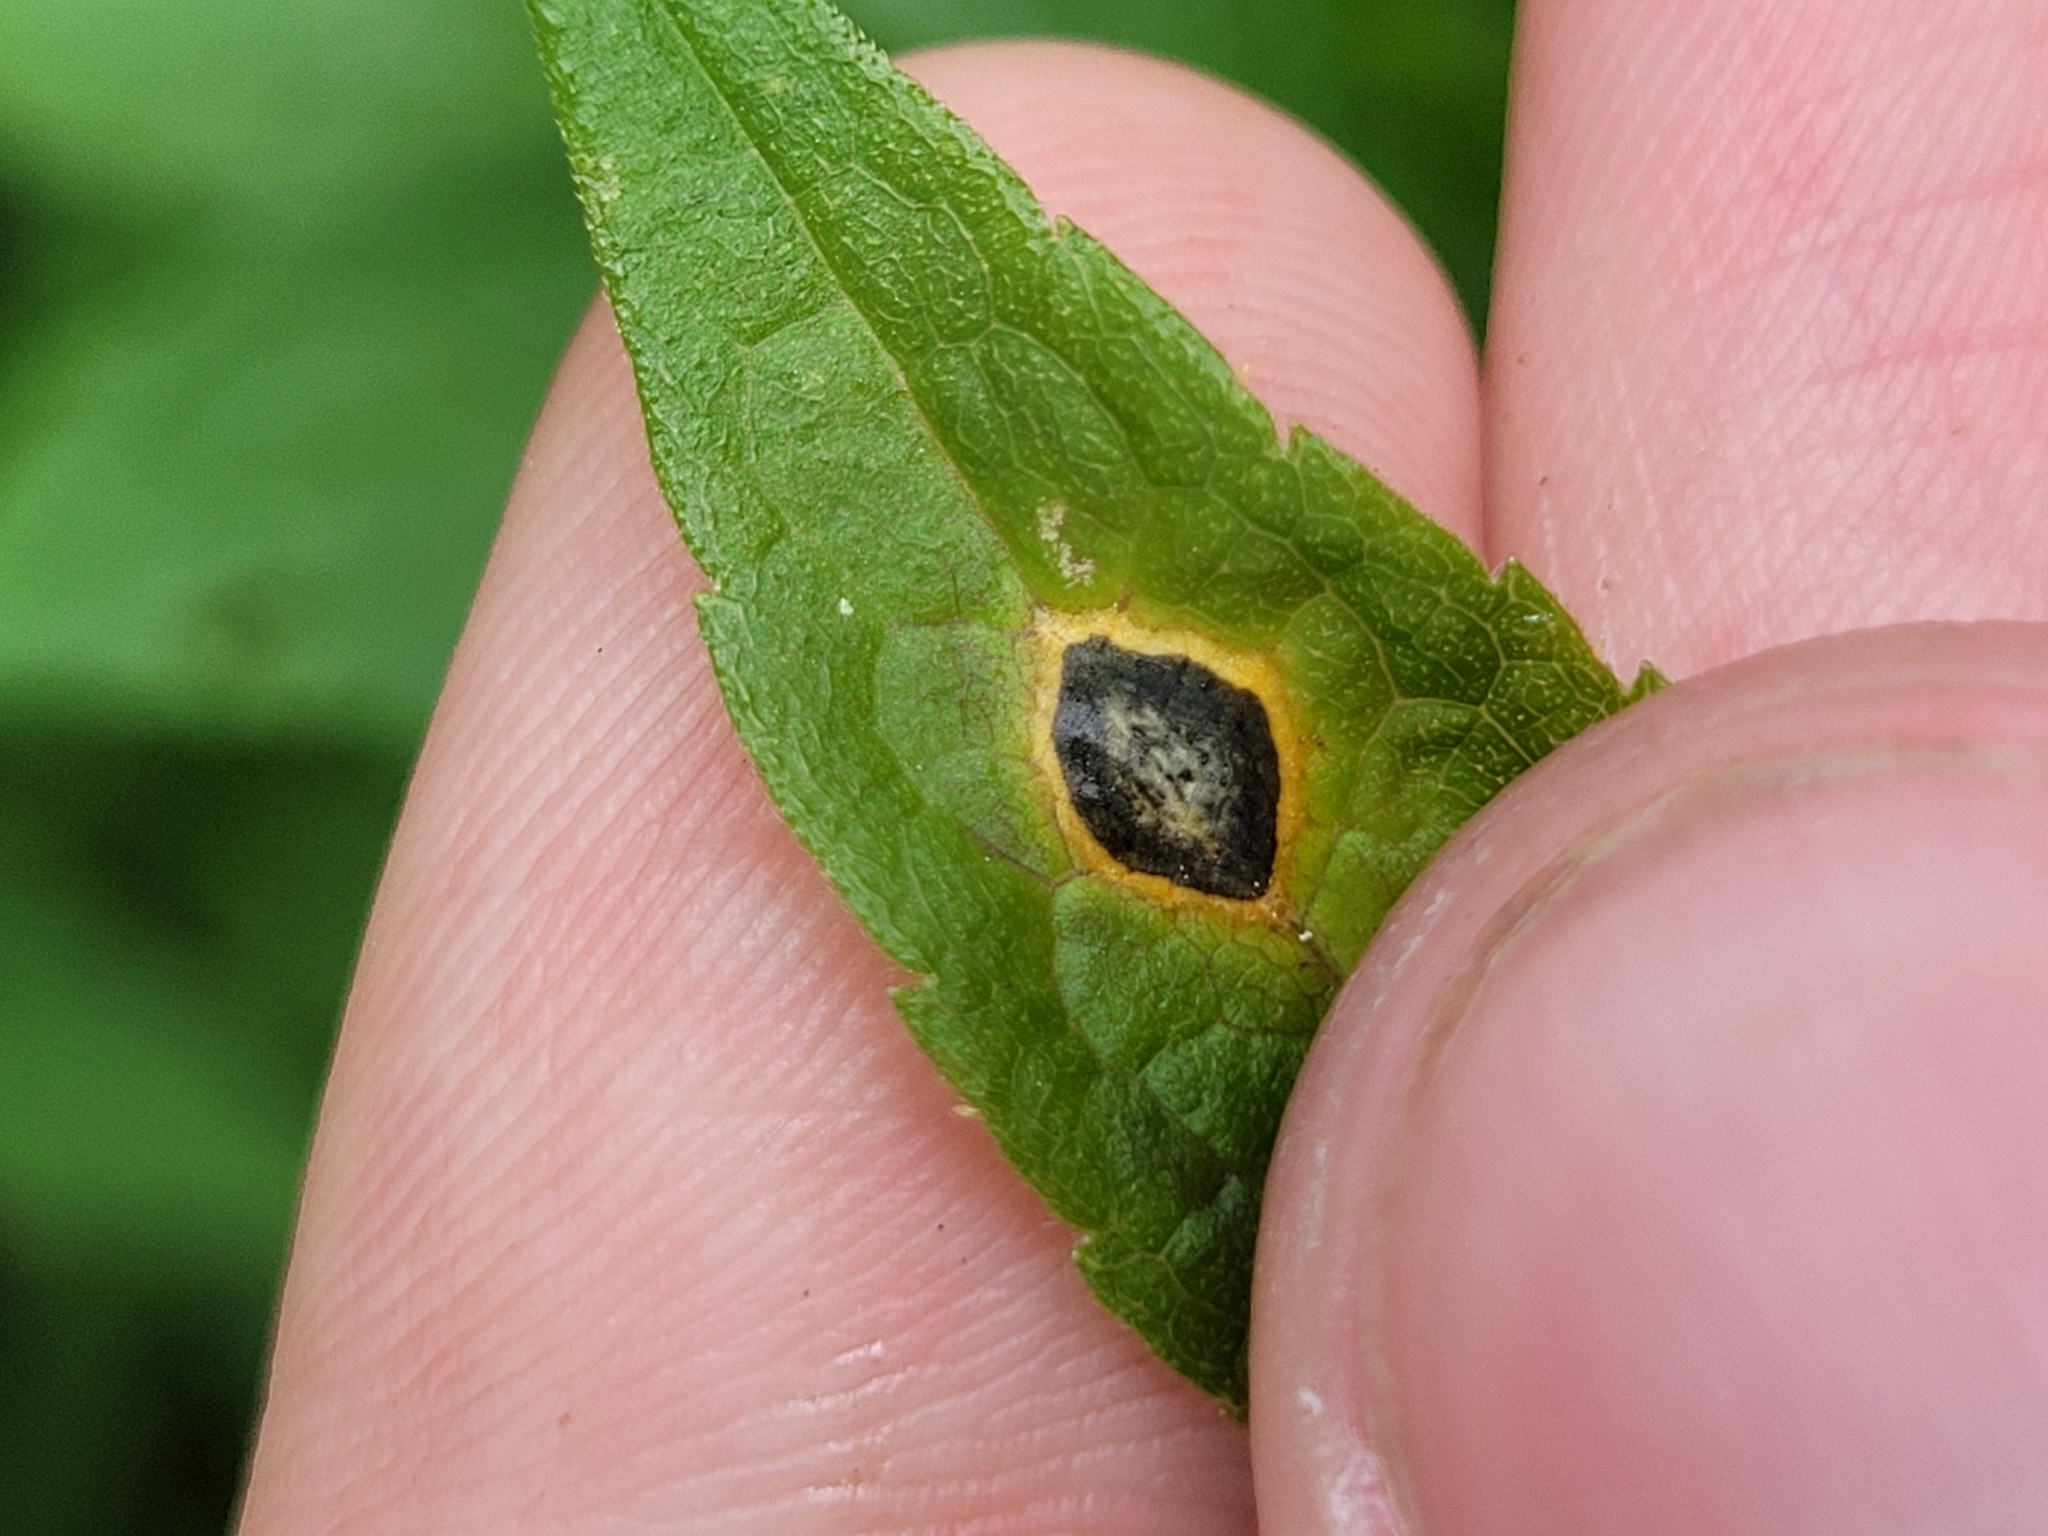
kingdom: Animalia
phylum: Arthropoda
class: Insecta
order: Diptera
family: Cecidomyiidae
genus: Asteromyia
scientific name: Asteromyia carbonifera
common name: Carbonifera goldenrod gall midge
